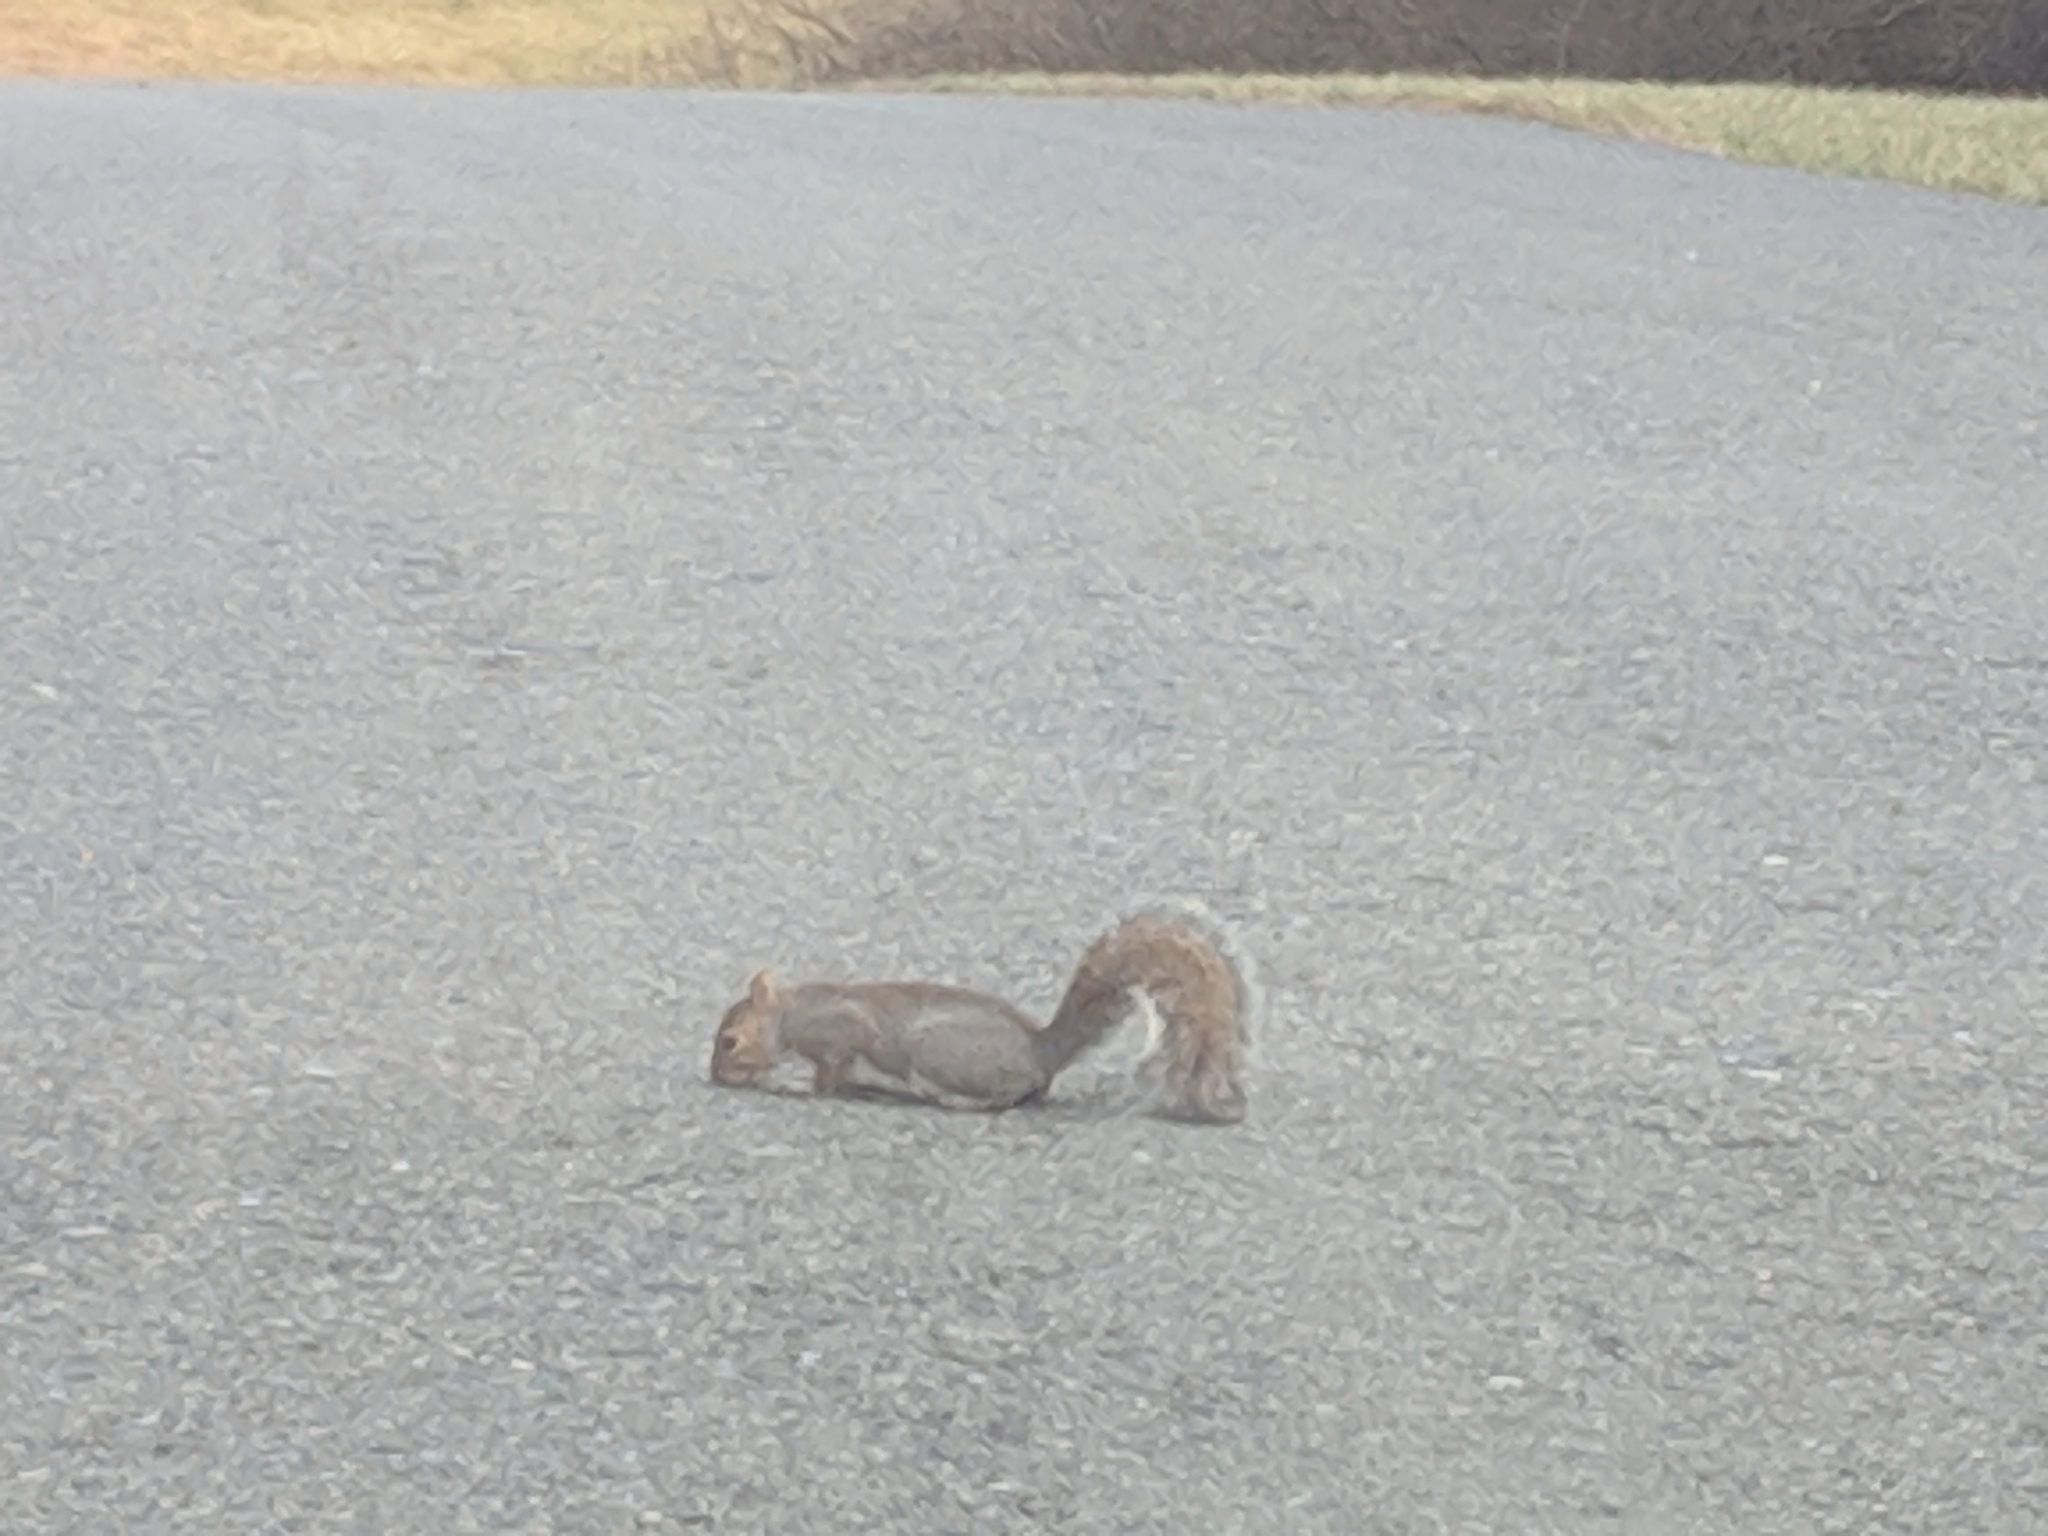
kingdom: Animalia
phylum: Chordata
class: Mammalia
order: Rodentia
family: Sciuridae
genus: Sciurus
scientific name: Sciurus carolinensis
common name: Eastern gray squirrel
